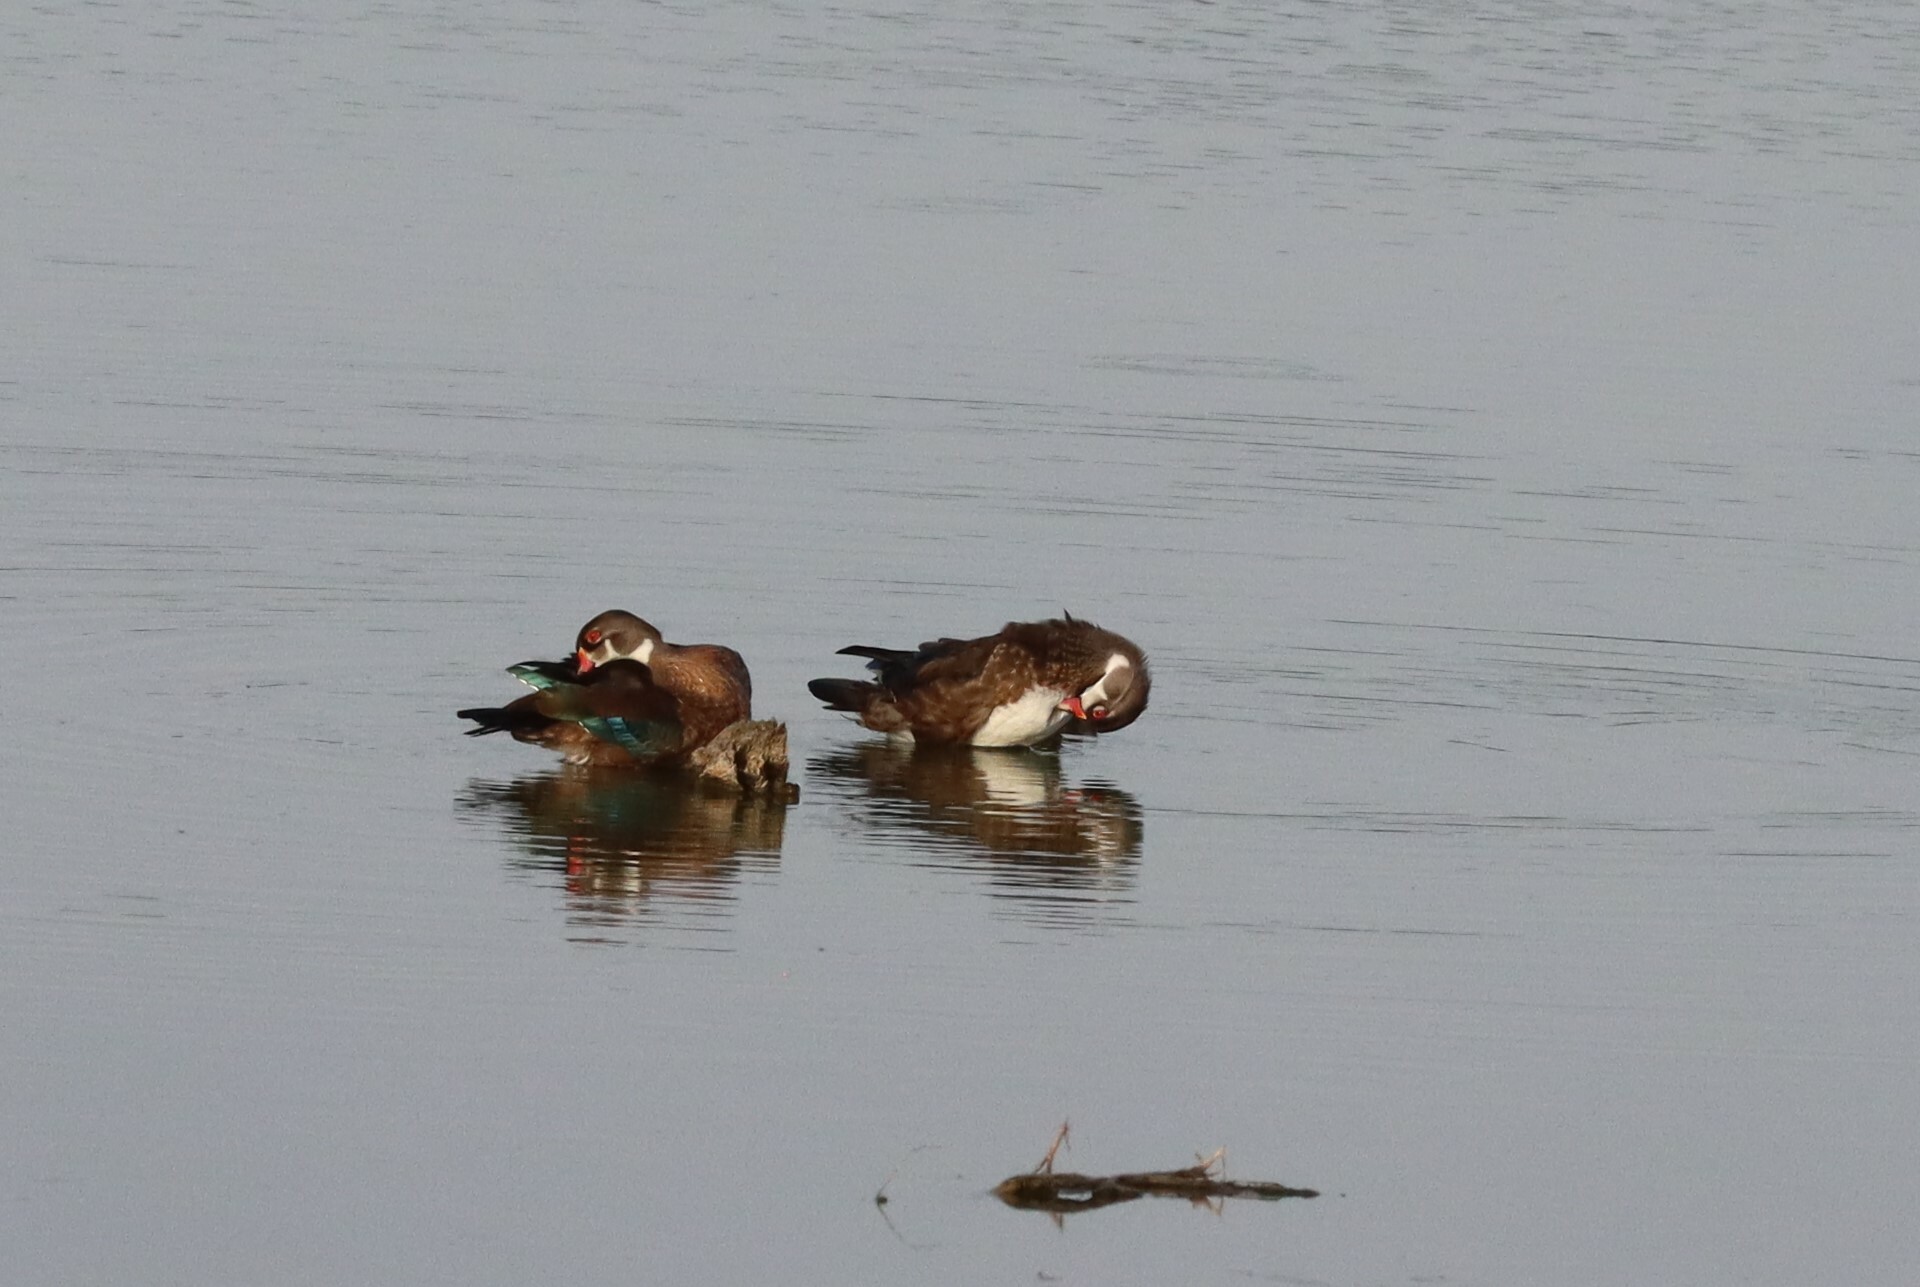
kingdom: Animalia
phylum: Chordata
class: Aves
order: Anseriformes
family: Anatidae
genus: Aix
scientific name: Aix sponsa
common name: Wood duck
